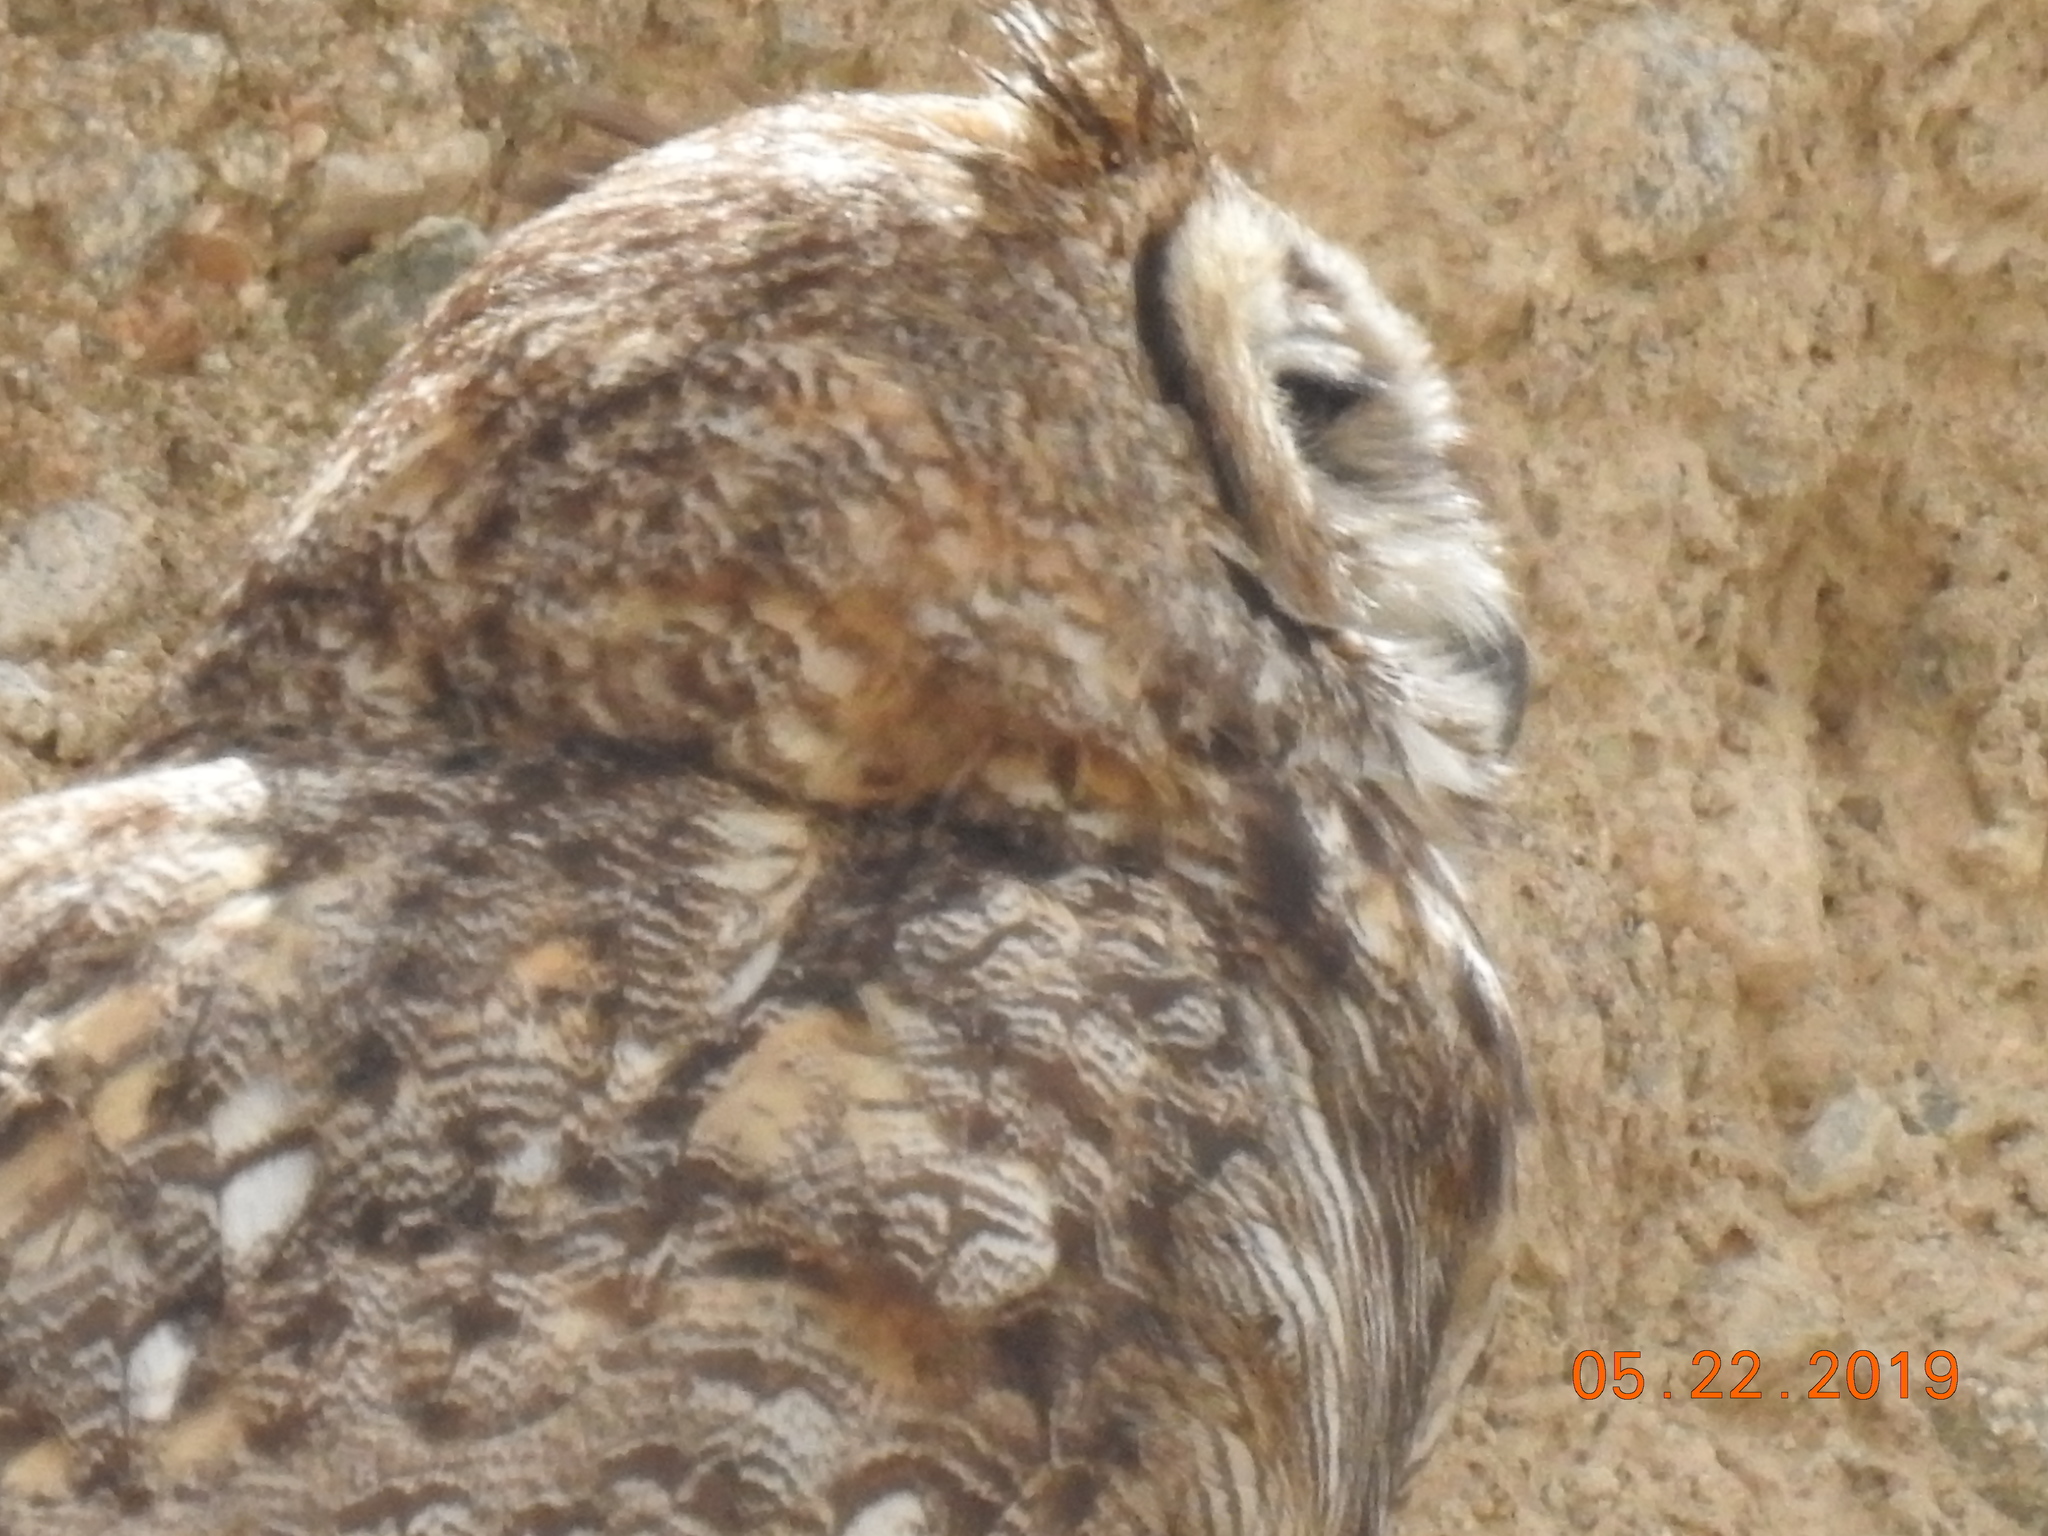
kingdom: Animalia
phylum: Chordata
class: Aves
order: Strigiformes
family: Strigidae
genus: Bubo
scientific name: Bubo virginianus
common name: Great horned owl
